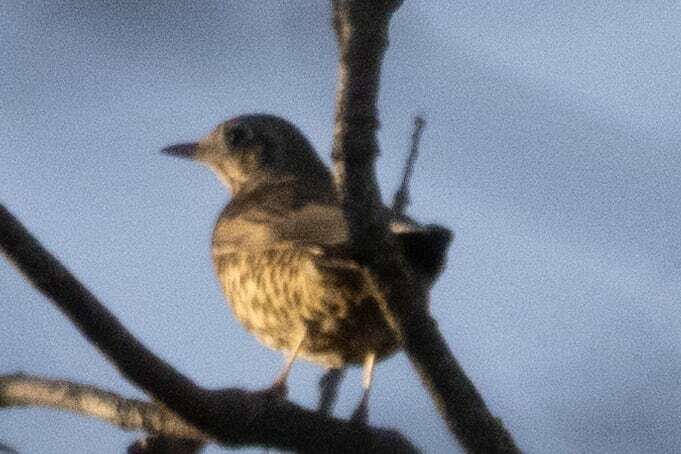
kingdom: Animalia
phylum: Chordata
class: Aves
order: Passeriformes
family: Turdidae
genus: Turdus
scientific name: Turdus viscivorus
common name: Mistle thrush
